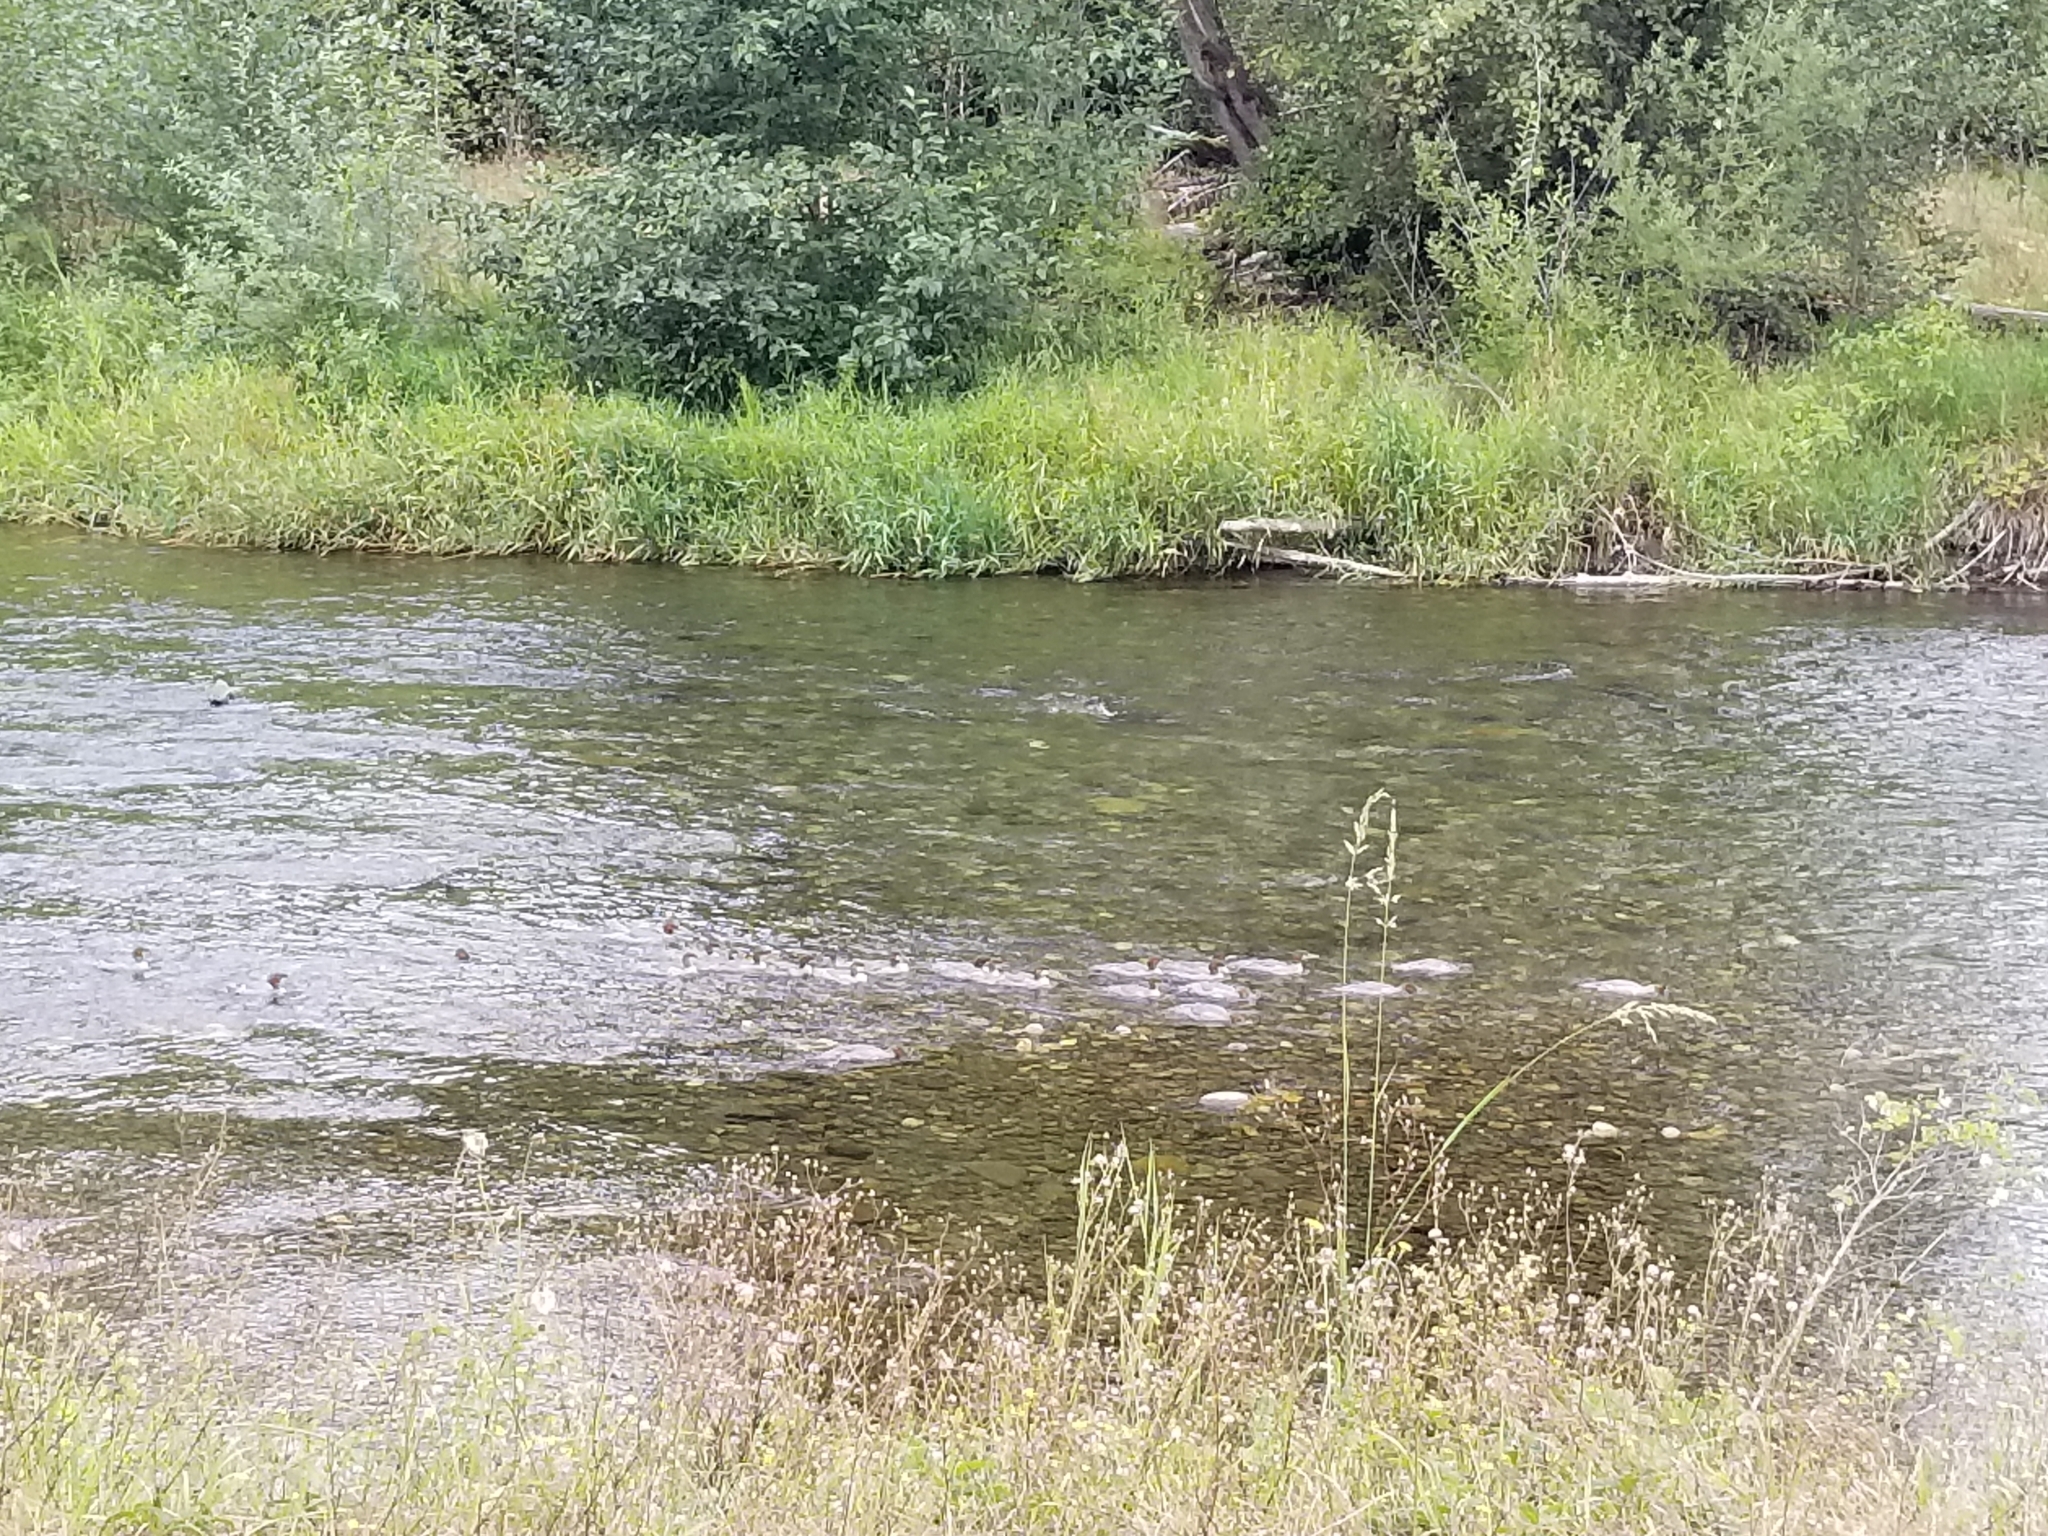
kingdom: Animalia
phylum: Chordata
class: Aves
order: Anseriformes
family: Anatidae
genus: Mergus
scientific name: Mergus merganser
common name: Common merganser
